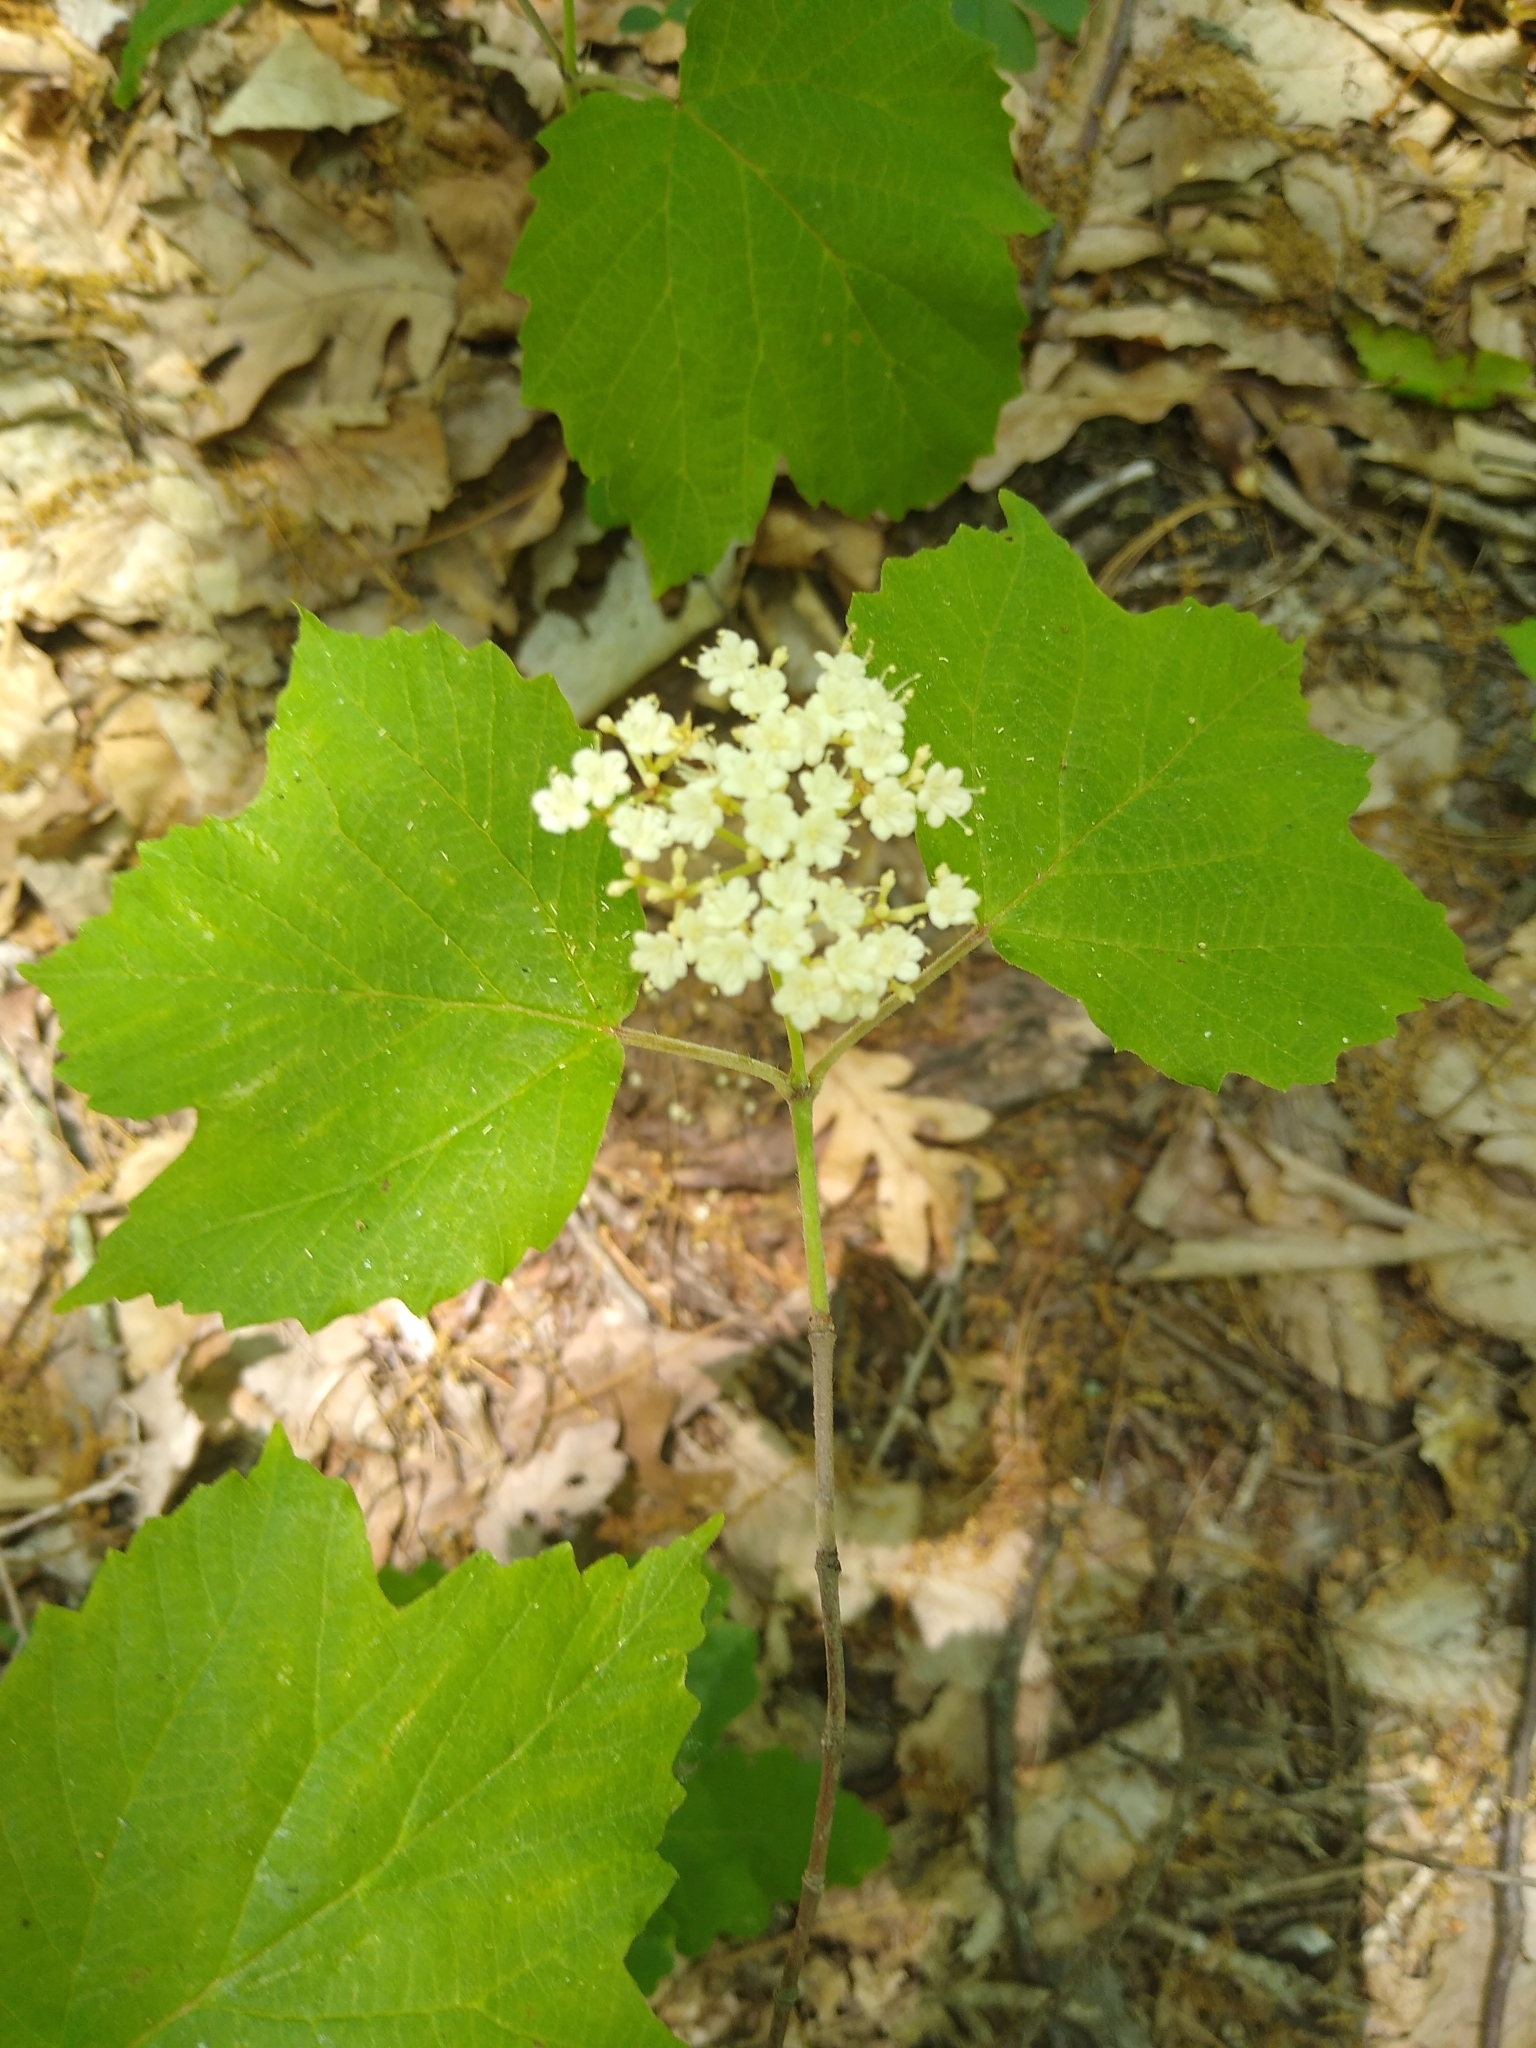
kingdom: Plantae
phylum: Tracheophyta
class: Magnoliopsida
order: Dipsacales
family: Viburnaceae
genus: Viburnum
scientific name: Viburnum acerifolium
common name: Dockmackie
